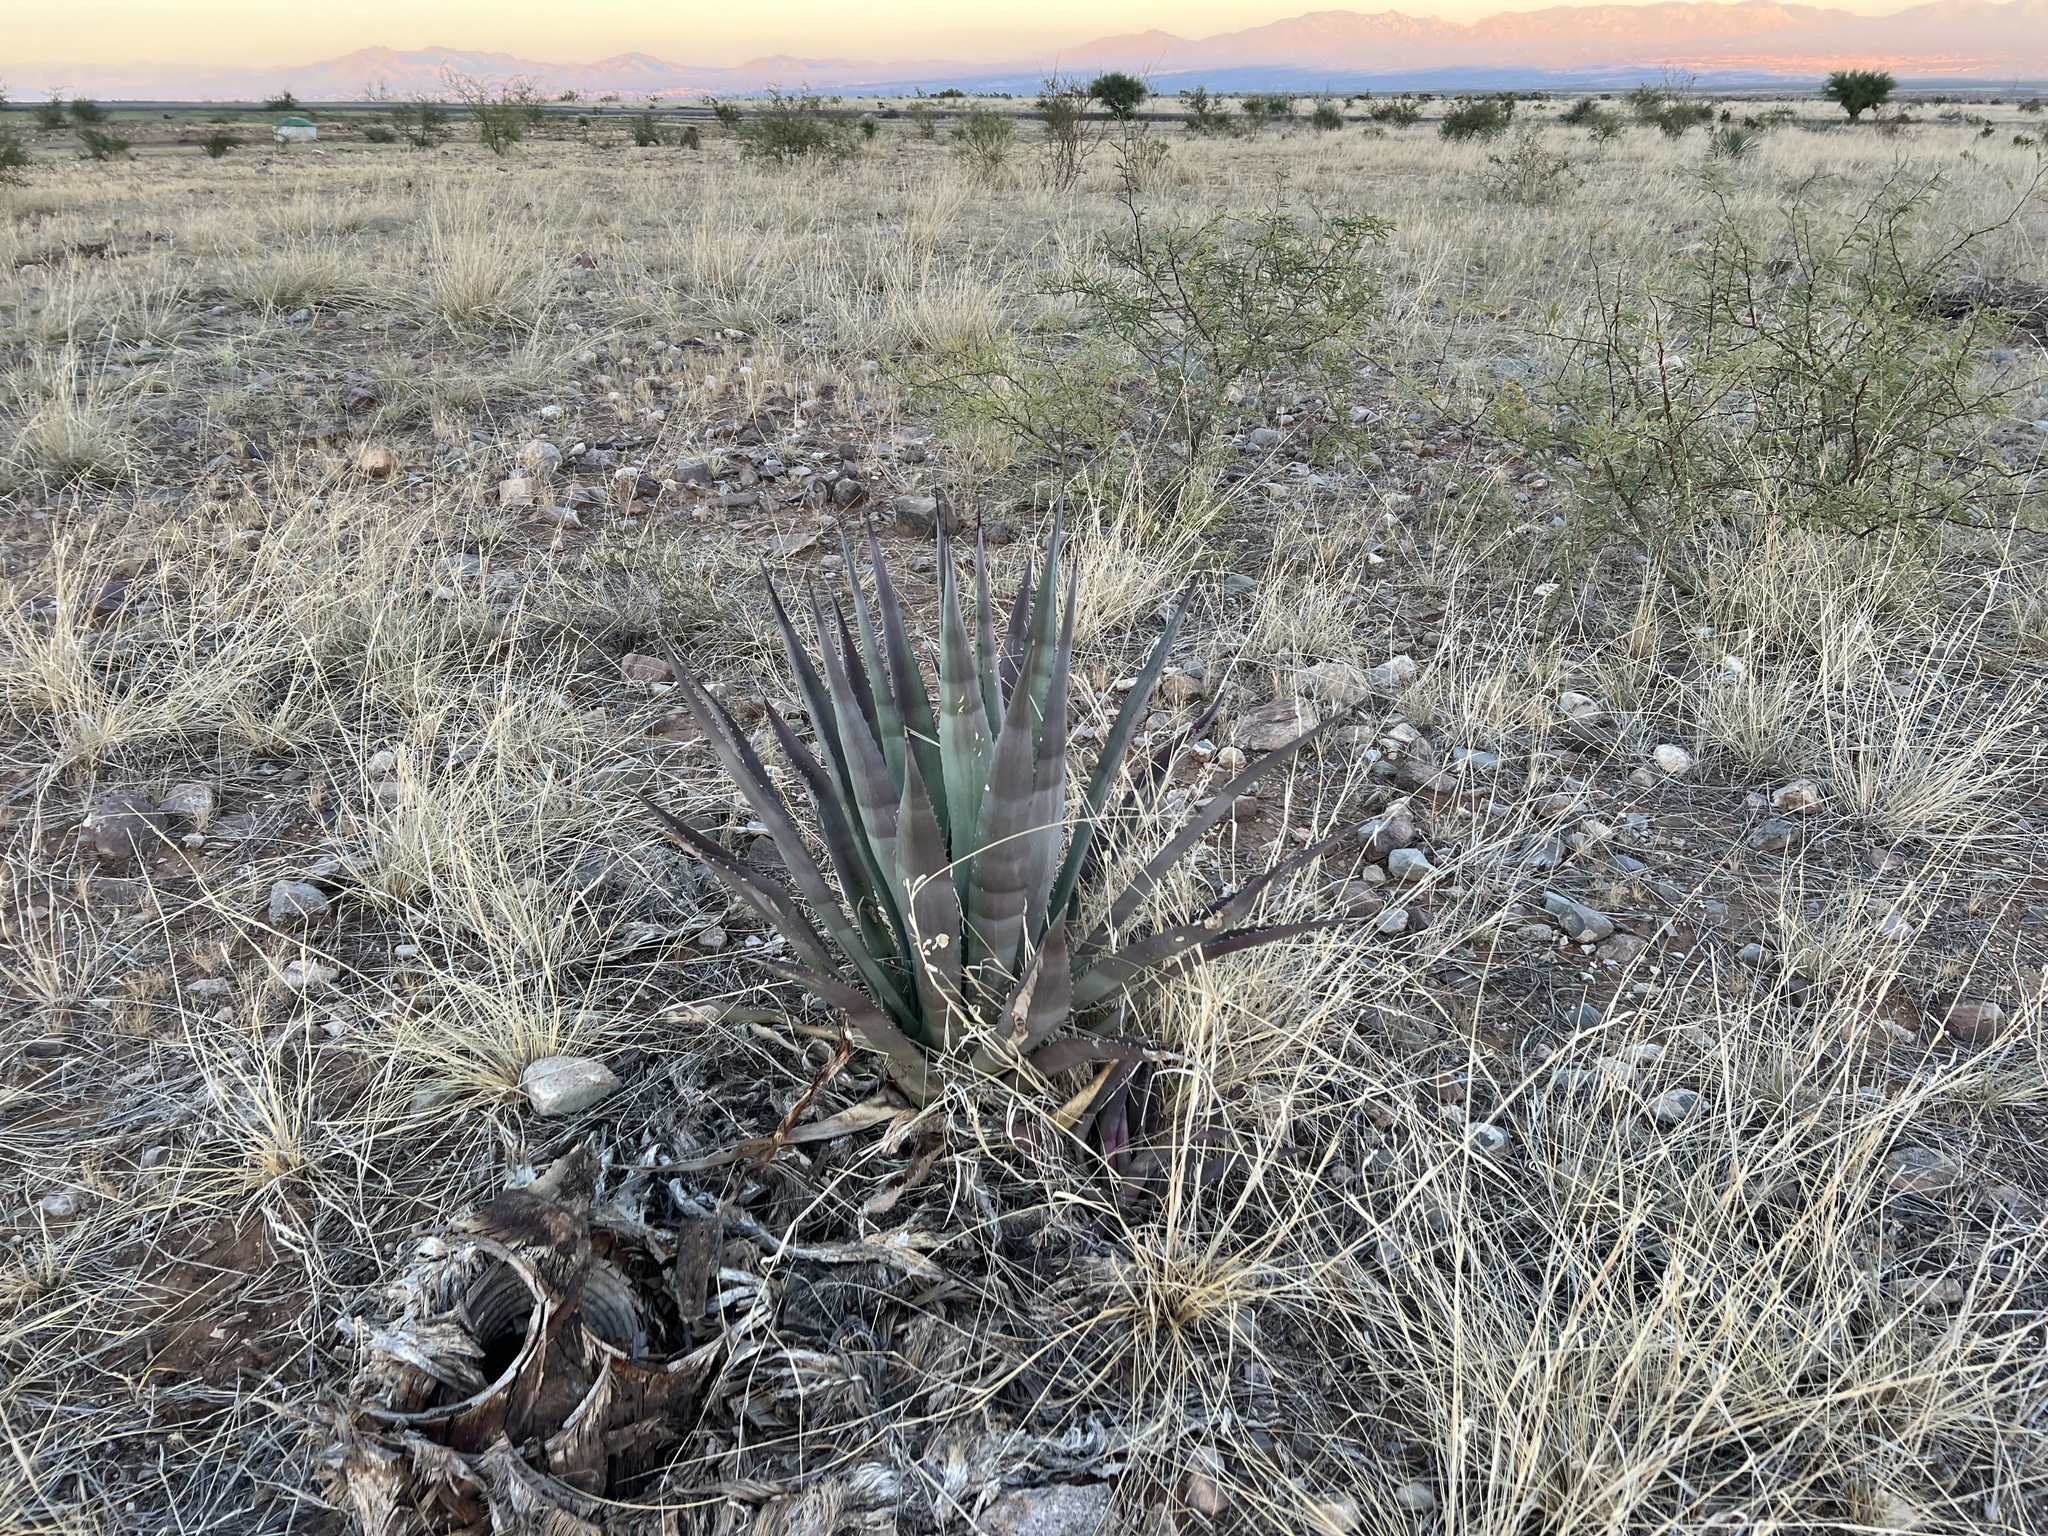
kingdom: Plantae
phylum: Tracheophyta
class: Liliopsida
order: Asparagales
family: Asparagaceae
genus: Agave
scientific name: Agave palmeri
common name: Palmer agave
